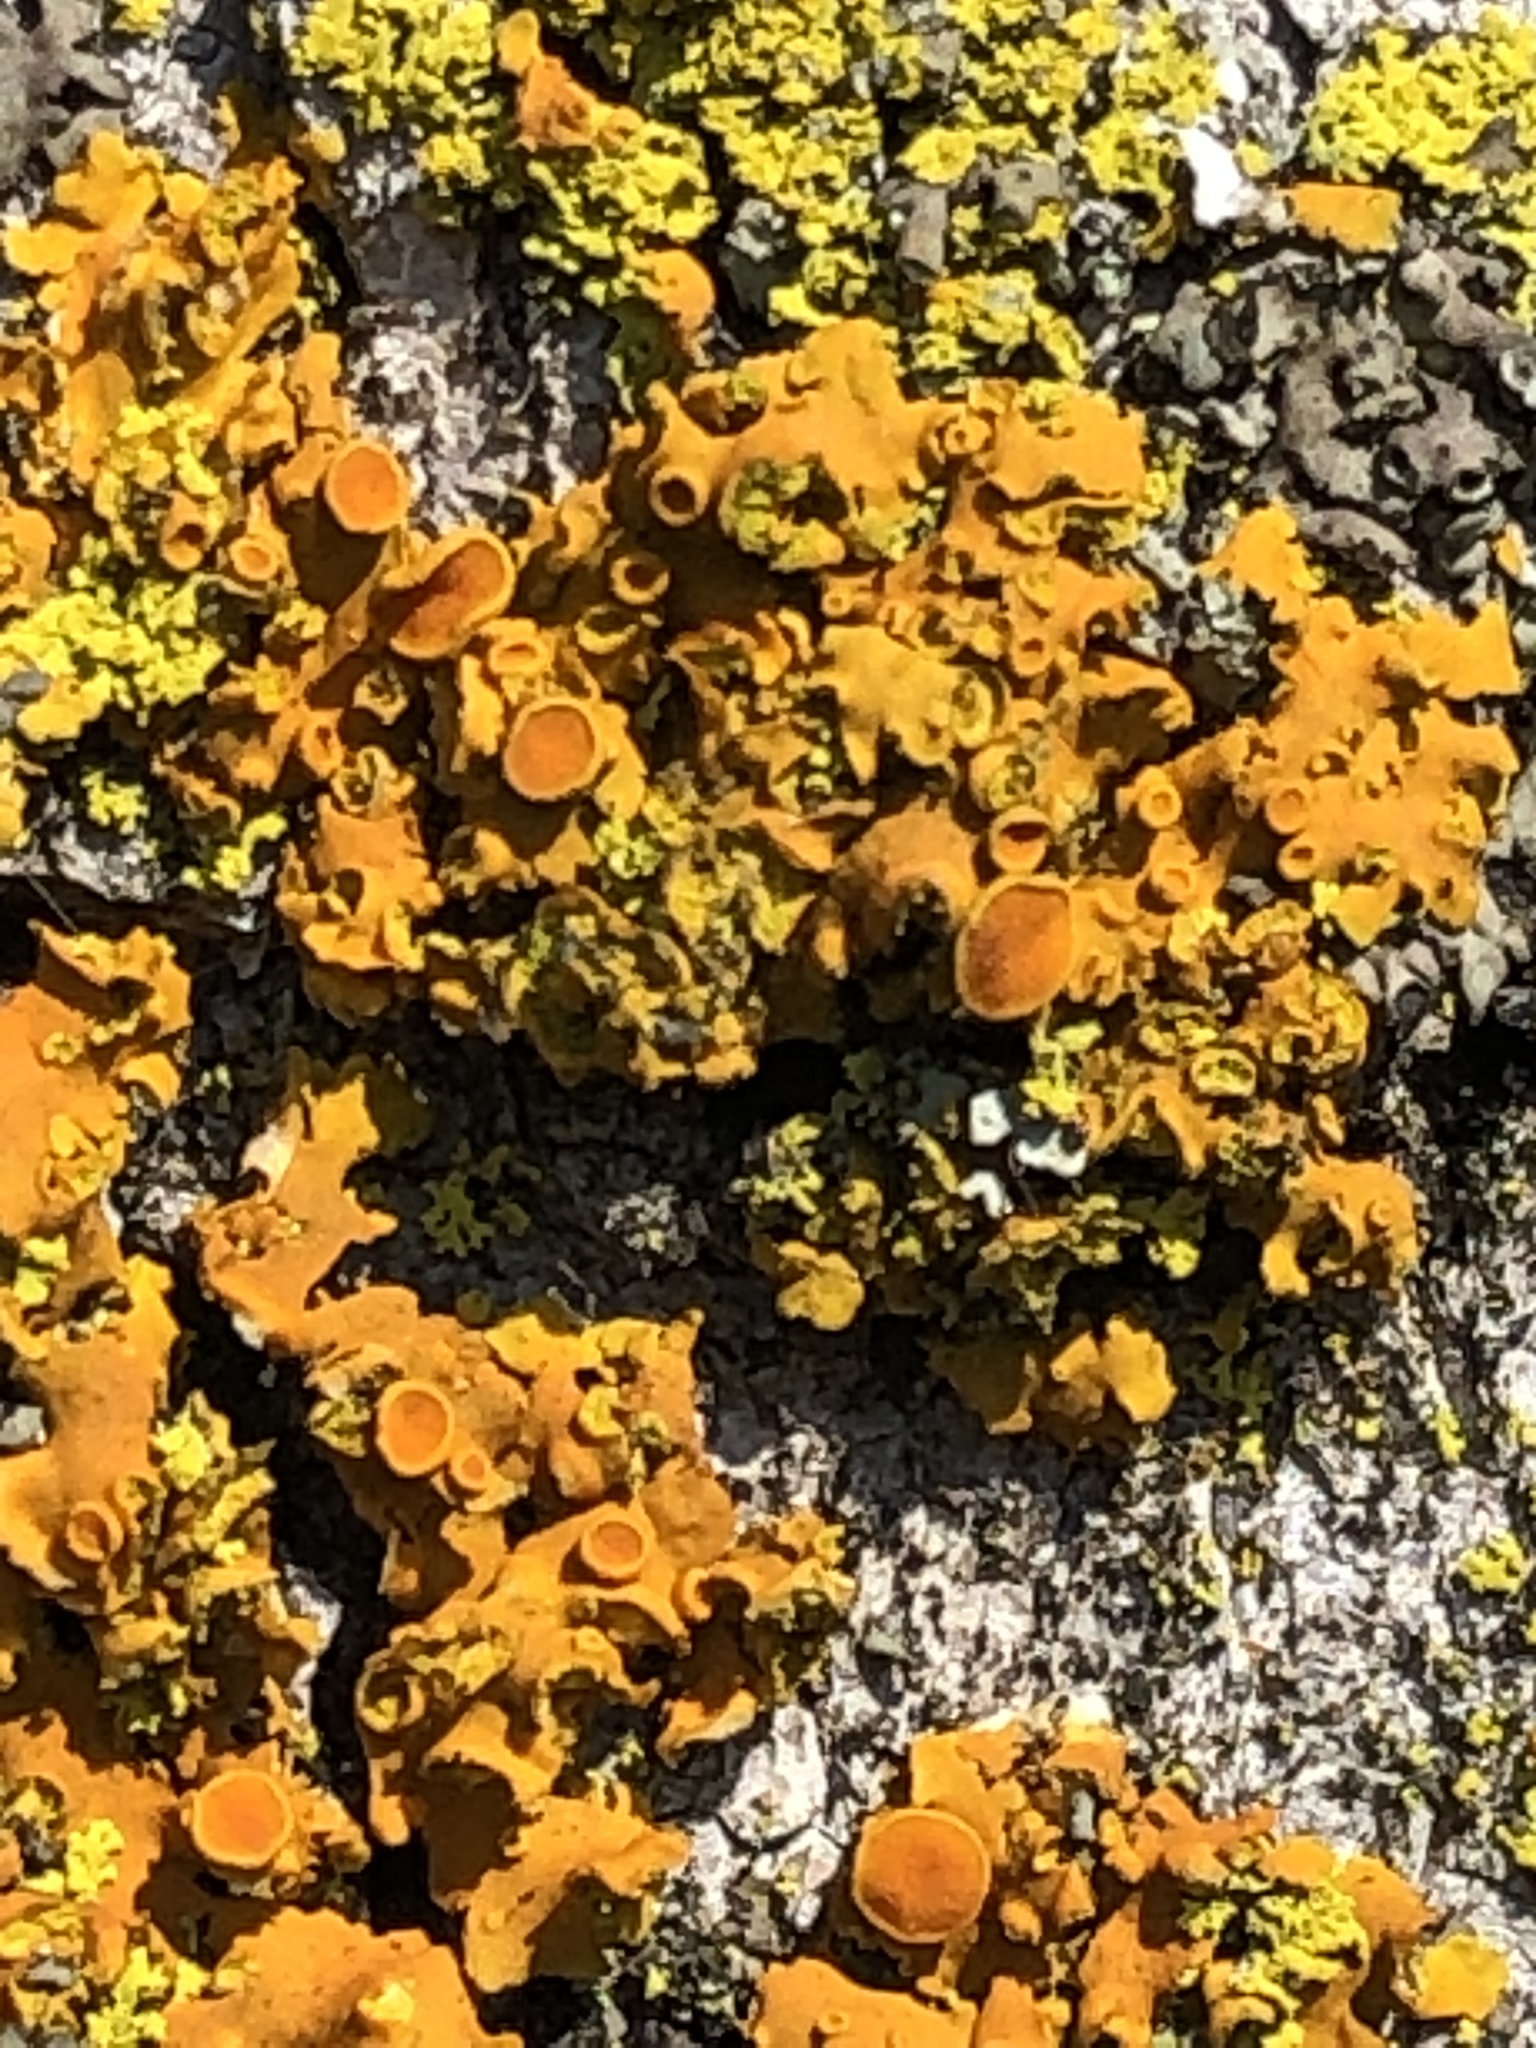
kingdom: Fungi
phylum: Ascomycota
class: Lecanoromycetes
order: Teloschistales
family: Teloschistaceae
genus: Oxneria
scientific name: Oxneria fallax
